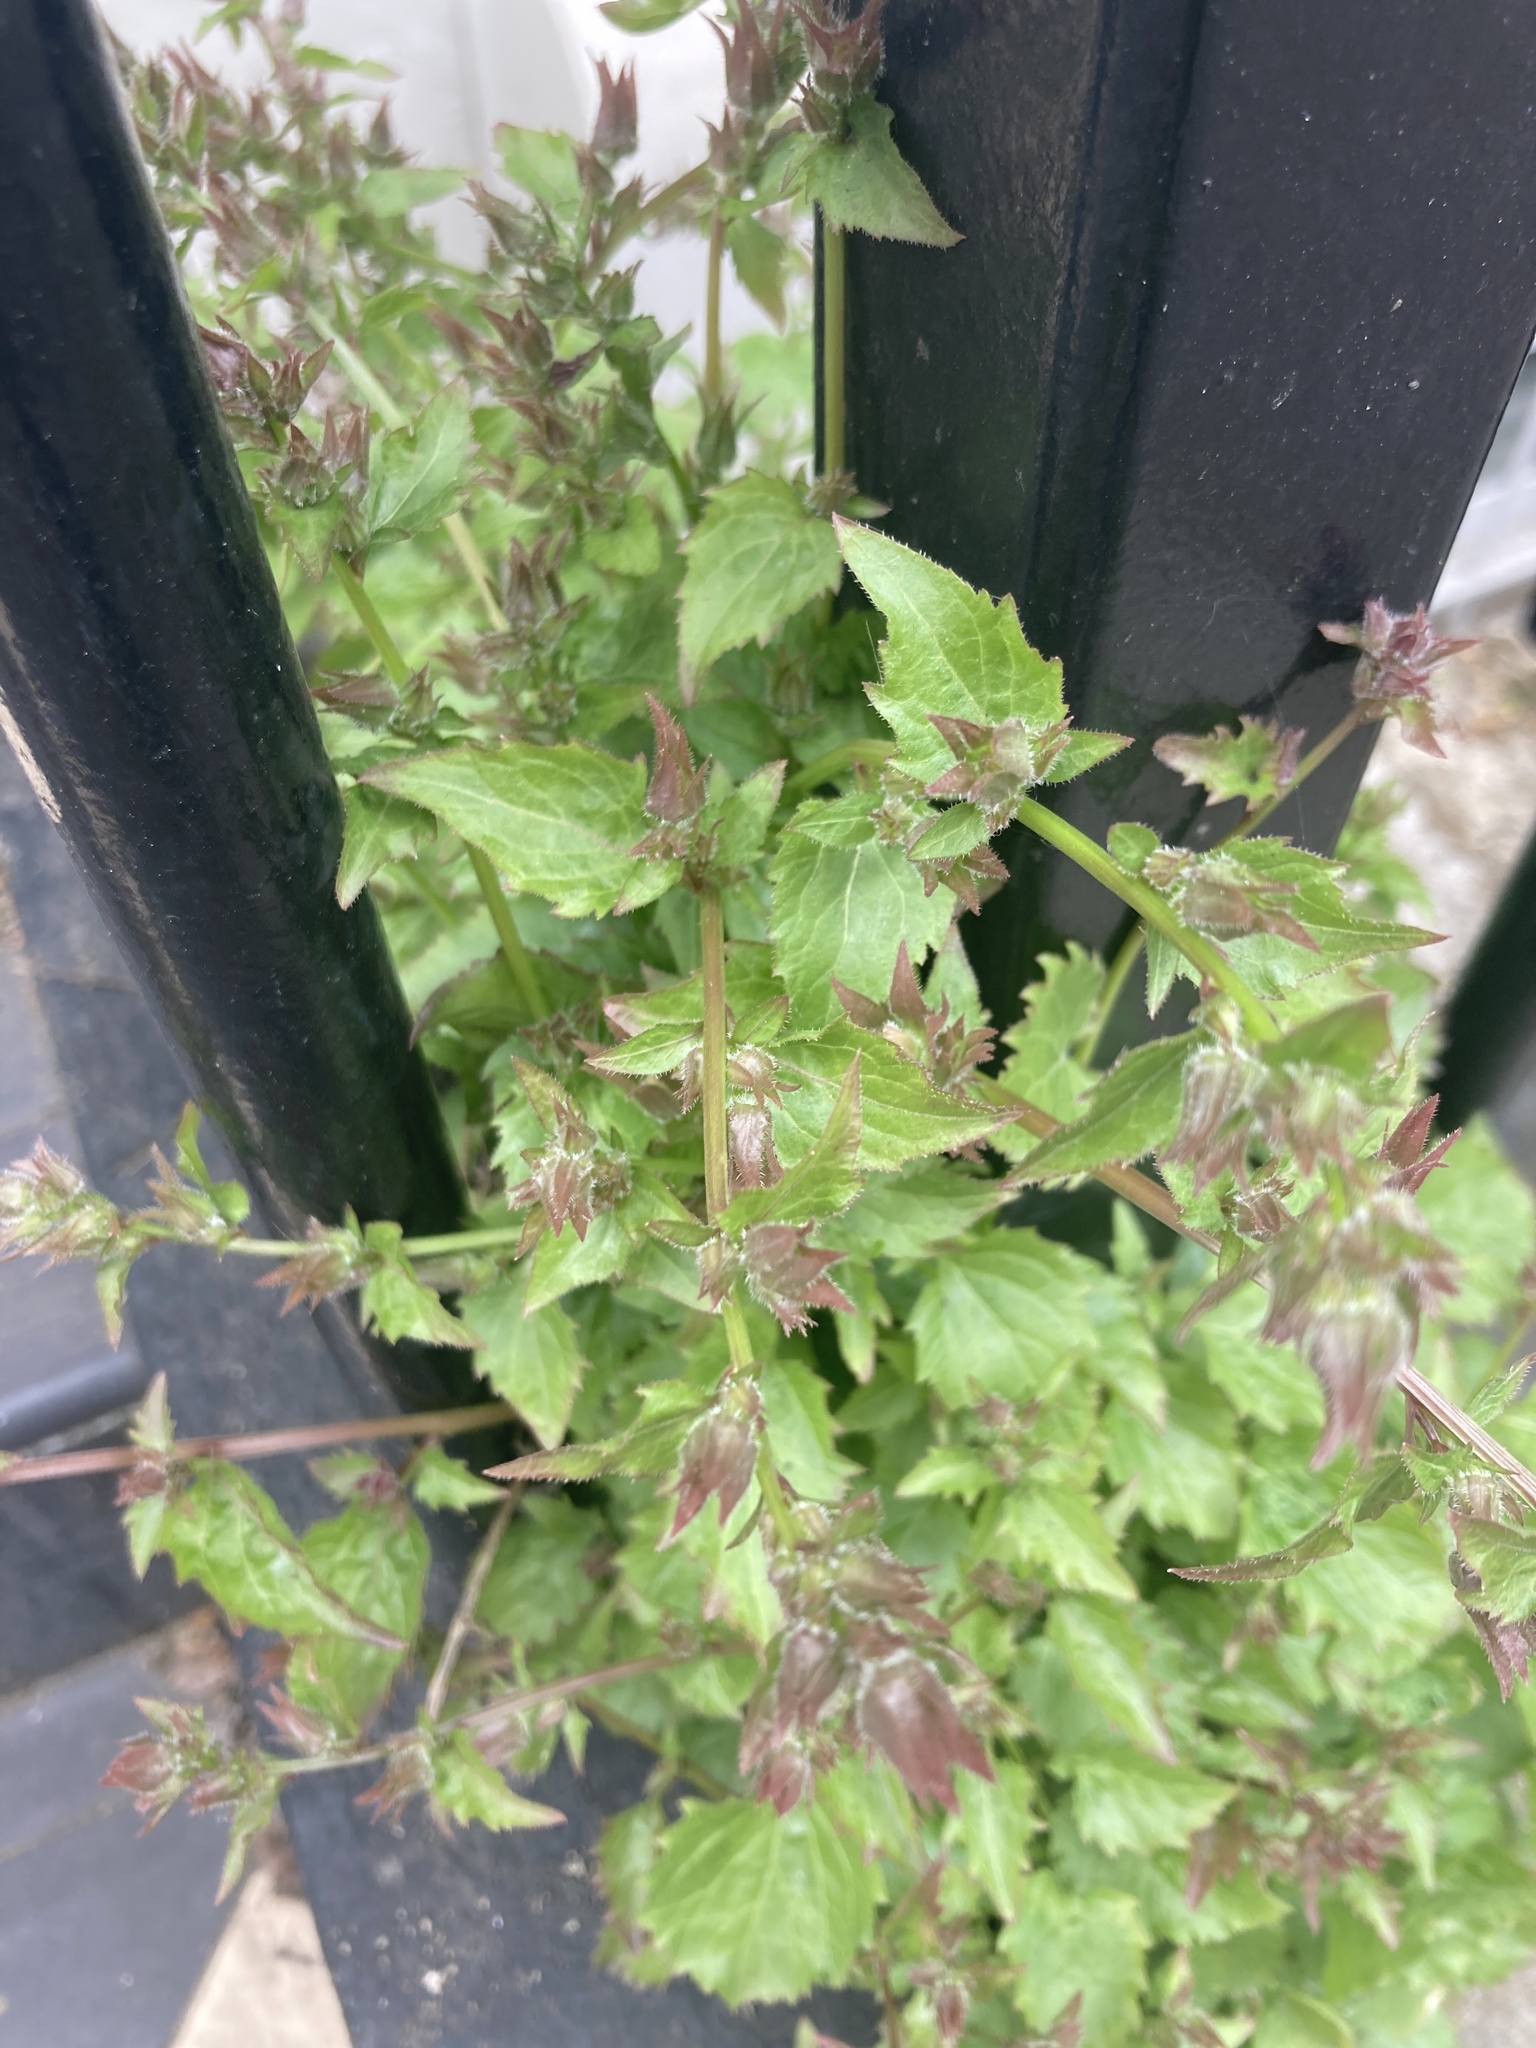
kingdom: Plantae
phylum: Tracheophyta
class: Magnoliopsida
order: Asterales
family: Campanulaceae
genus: Campanula
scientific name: Campanula poscharskyana
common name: Trailing bellflower
